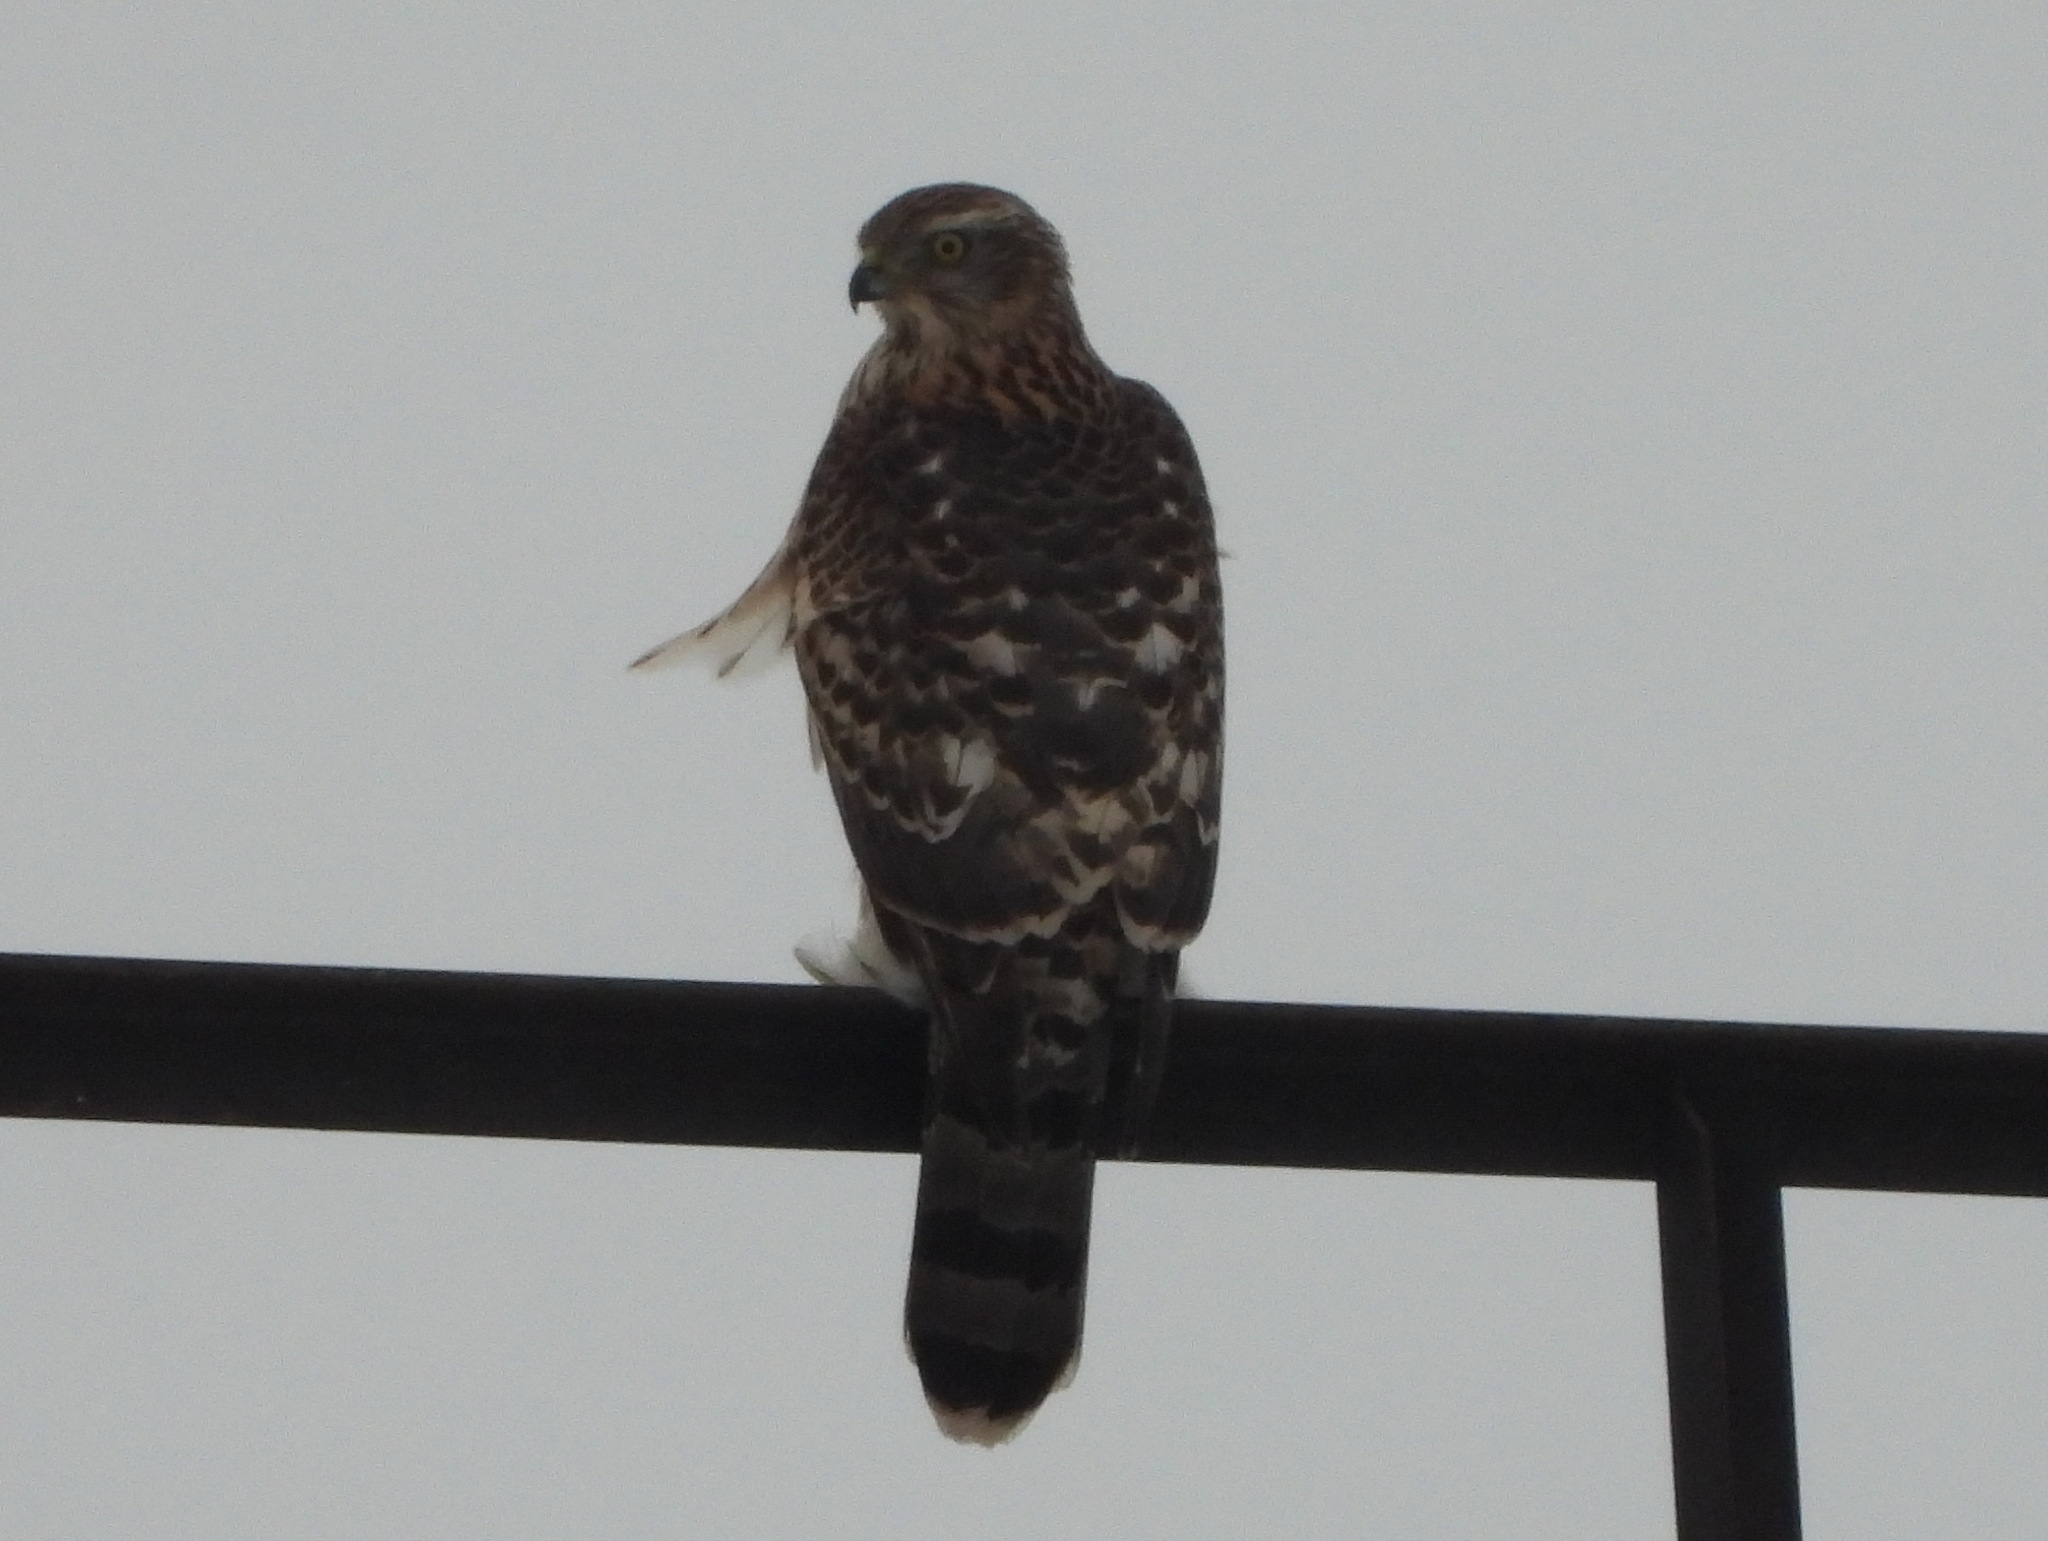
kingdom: Animalia
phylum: Chordata
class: Aves
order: Accipitriformes
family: Accipitridae
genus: Accipiter
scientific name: Accipiter gentilis
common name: Northern goshawk
